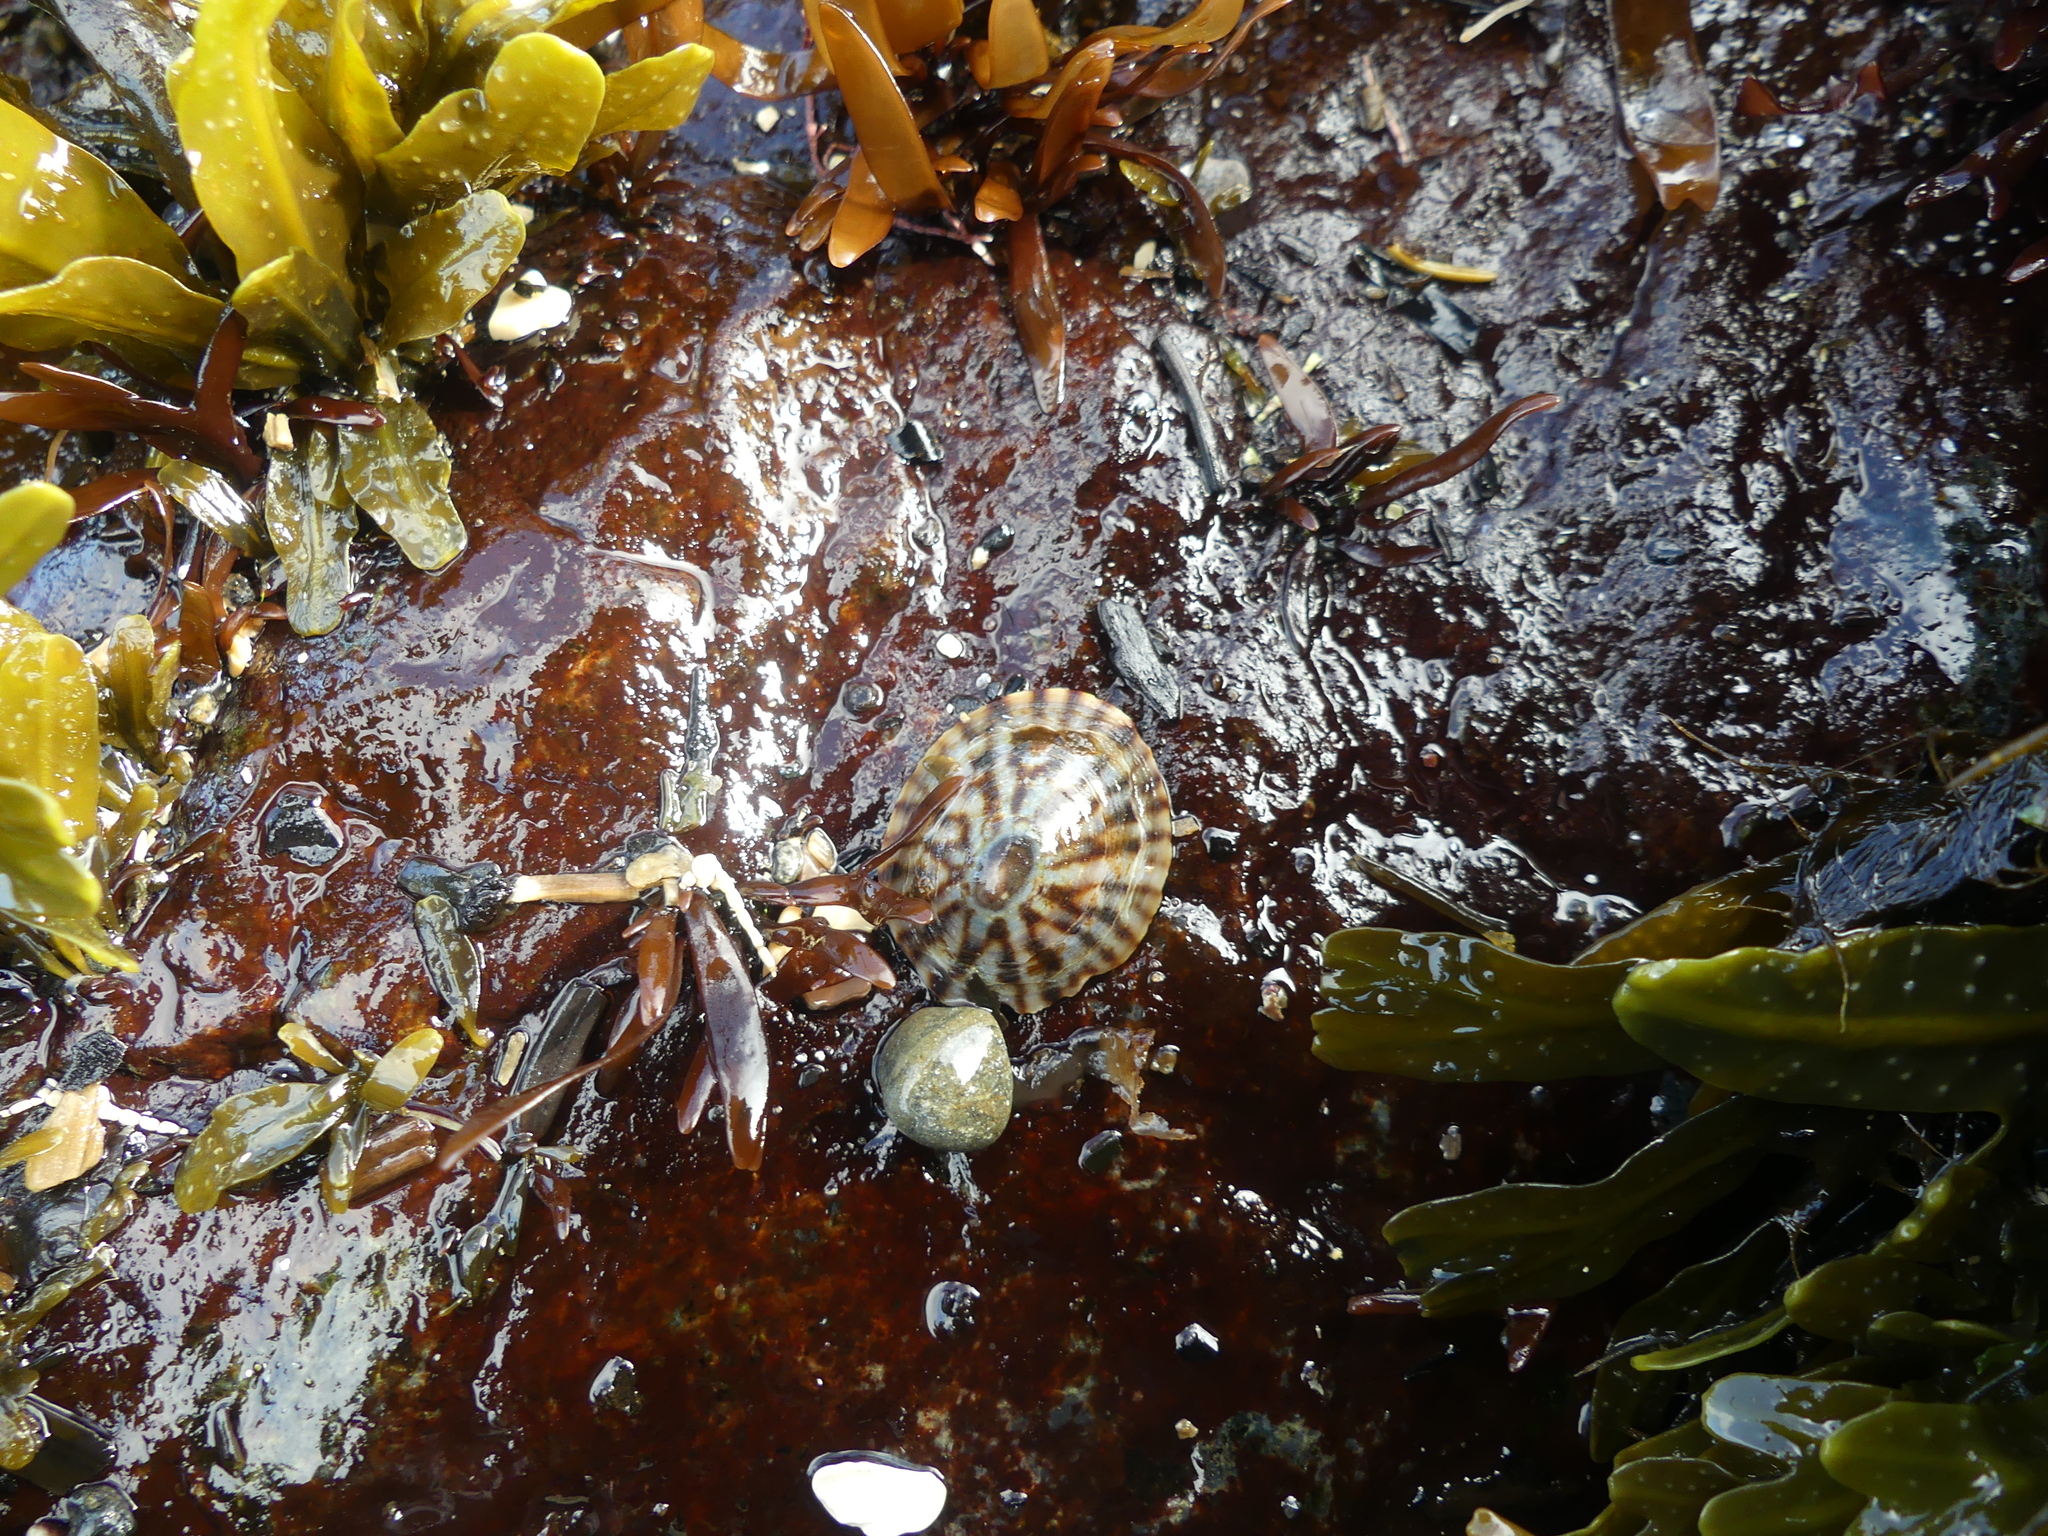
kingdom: Animalia
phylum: Mollusca
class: Gastropoda
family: Lottiidae
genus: Testudinalia
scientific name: Testudinalia testudinalis
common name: Common tortoiseshell limpet
